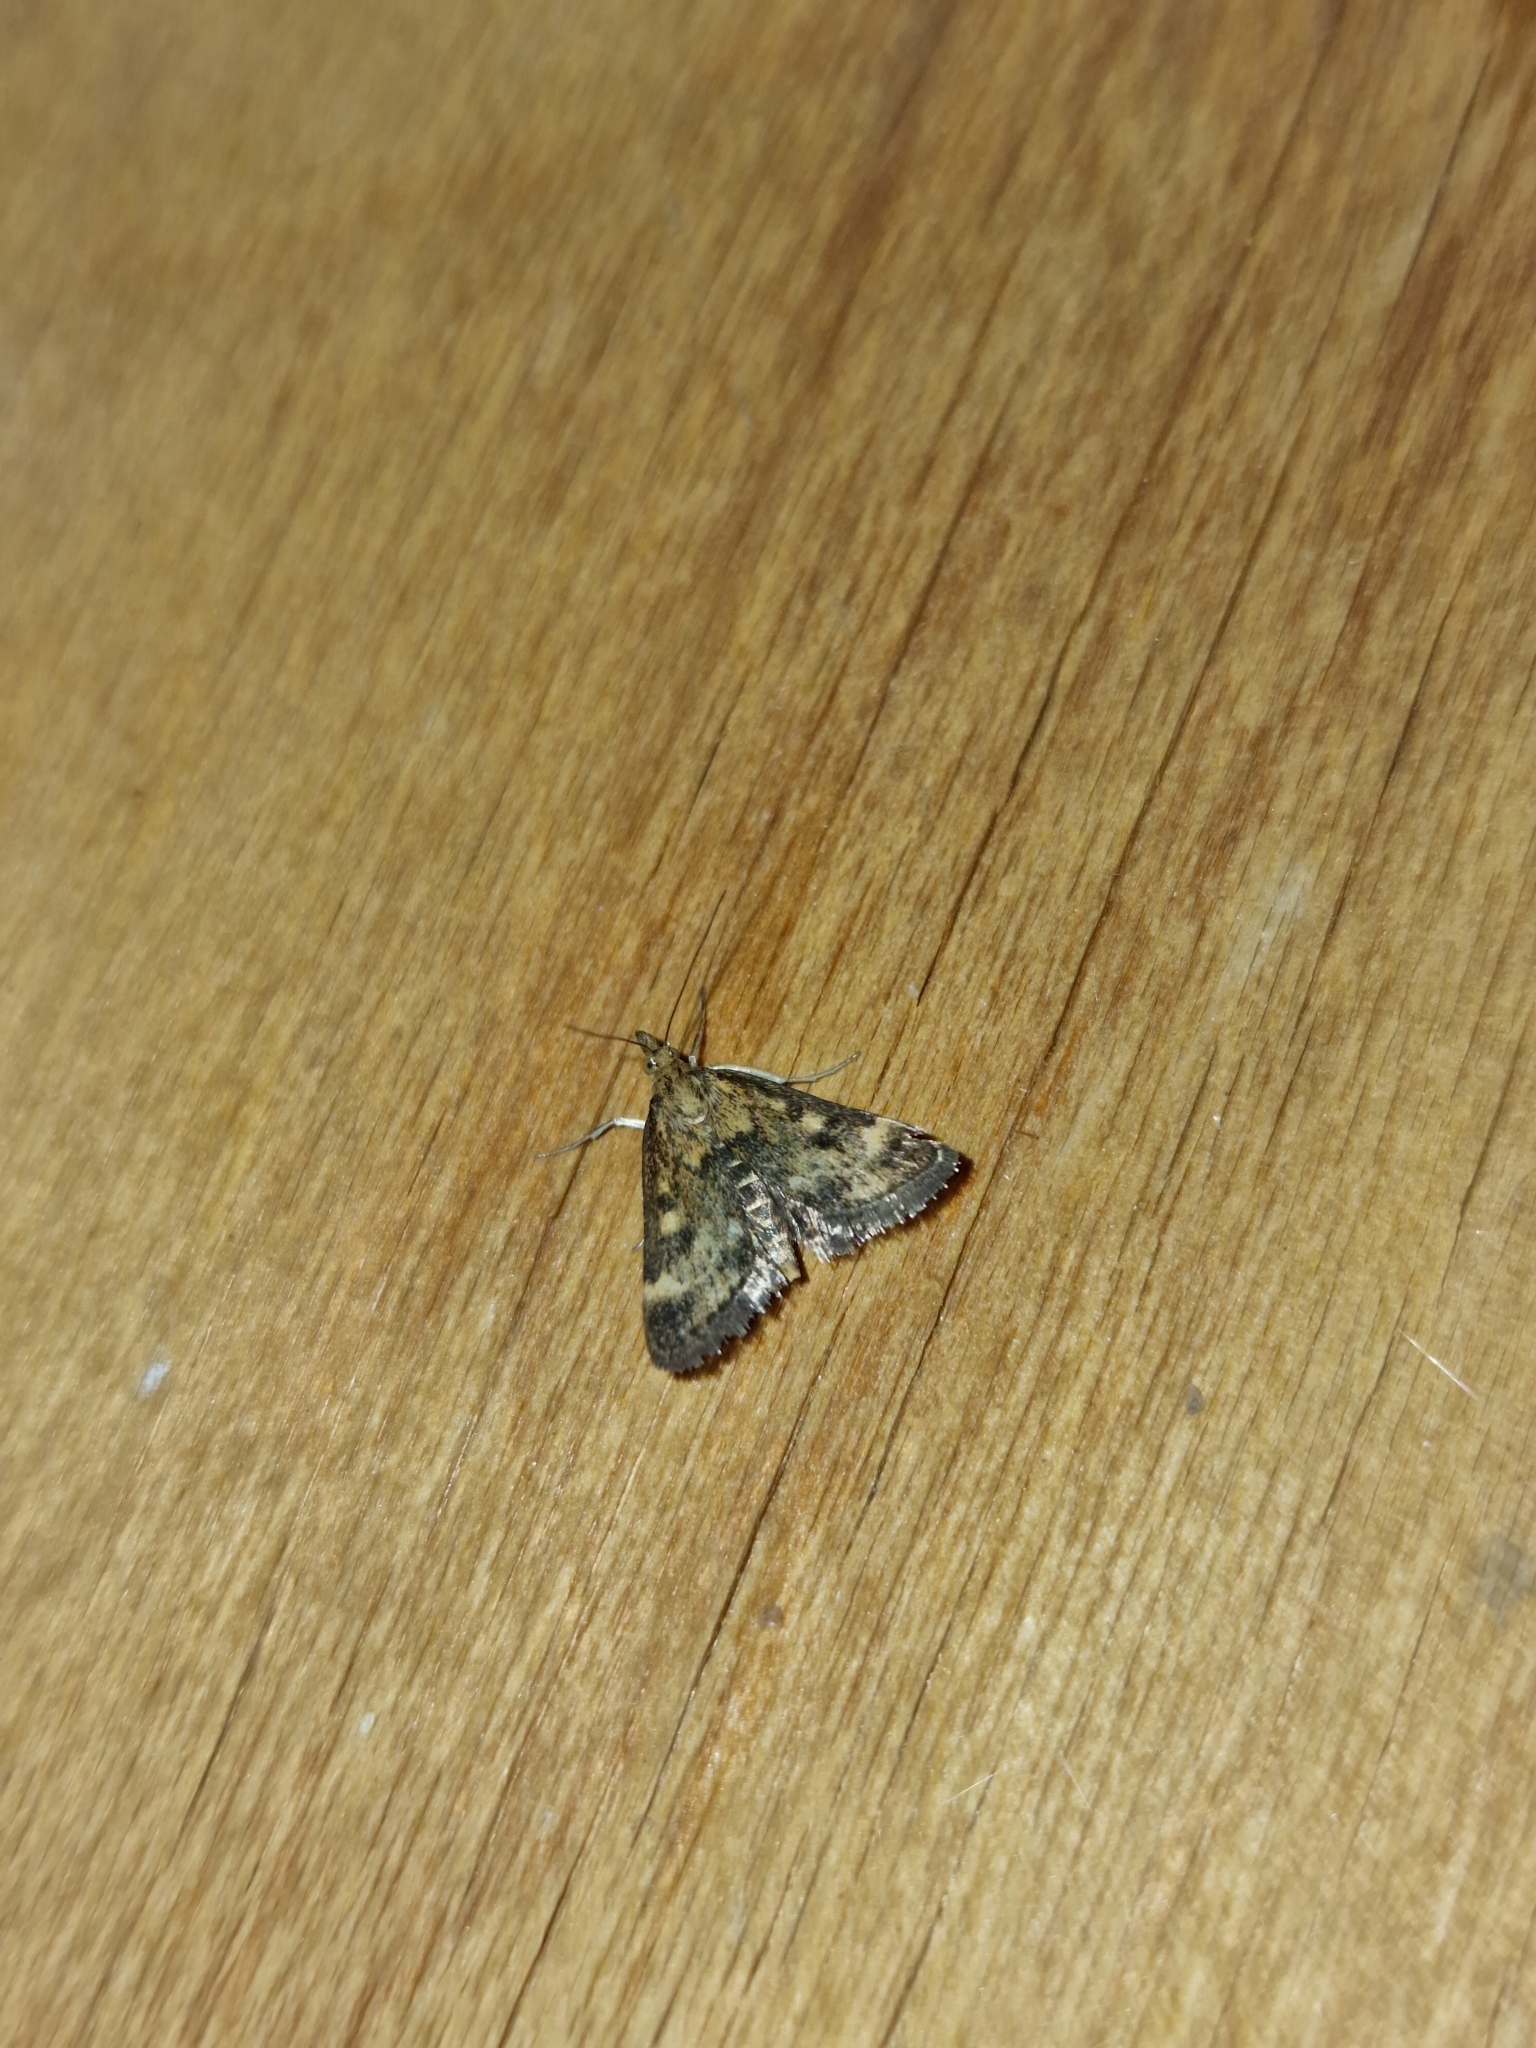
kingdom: Animalia
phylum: Arthropoda
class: Insecta
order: Lepidoptera
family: Crambidae
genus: Pyrausta
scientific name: Pyrausta despicata
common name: Straw-barred pearl
